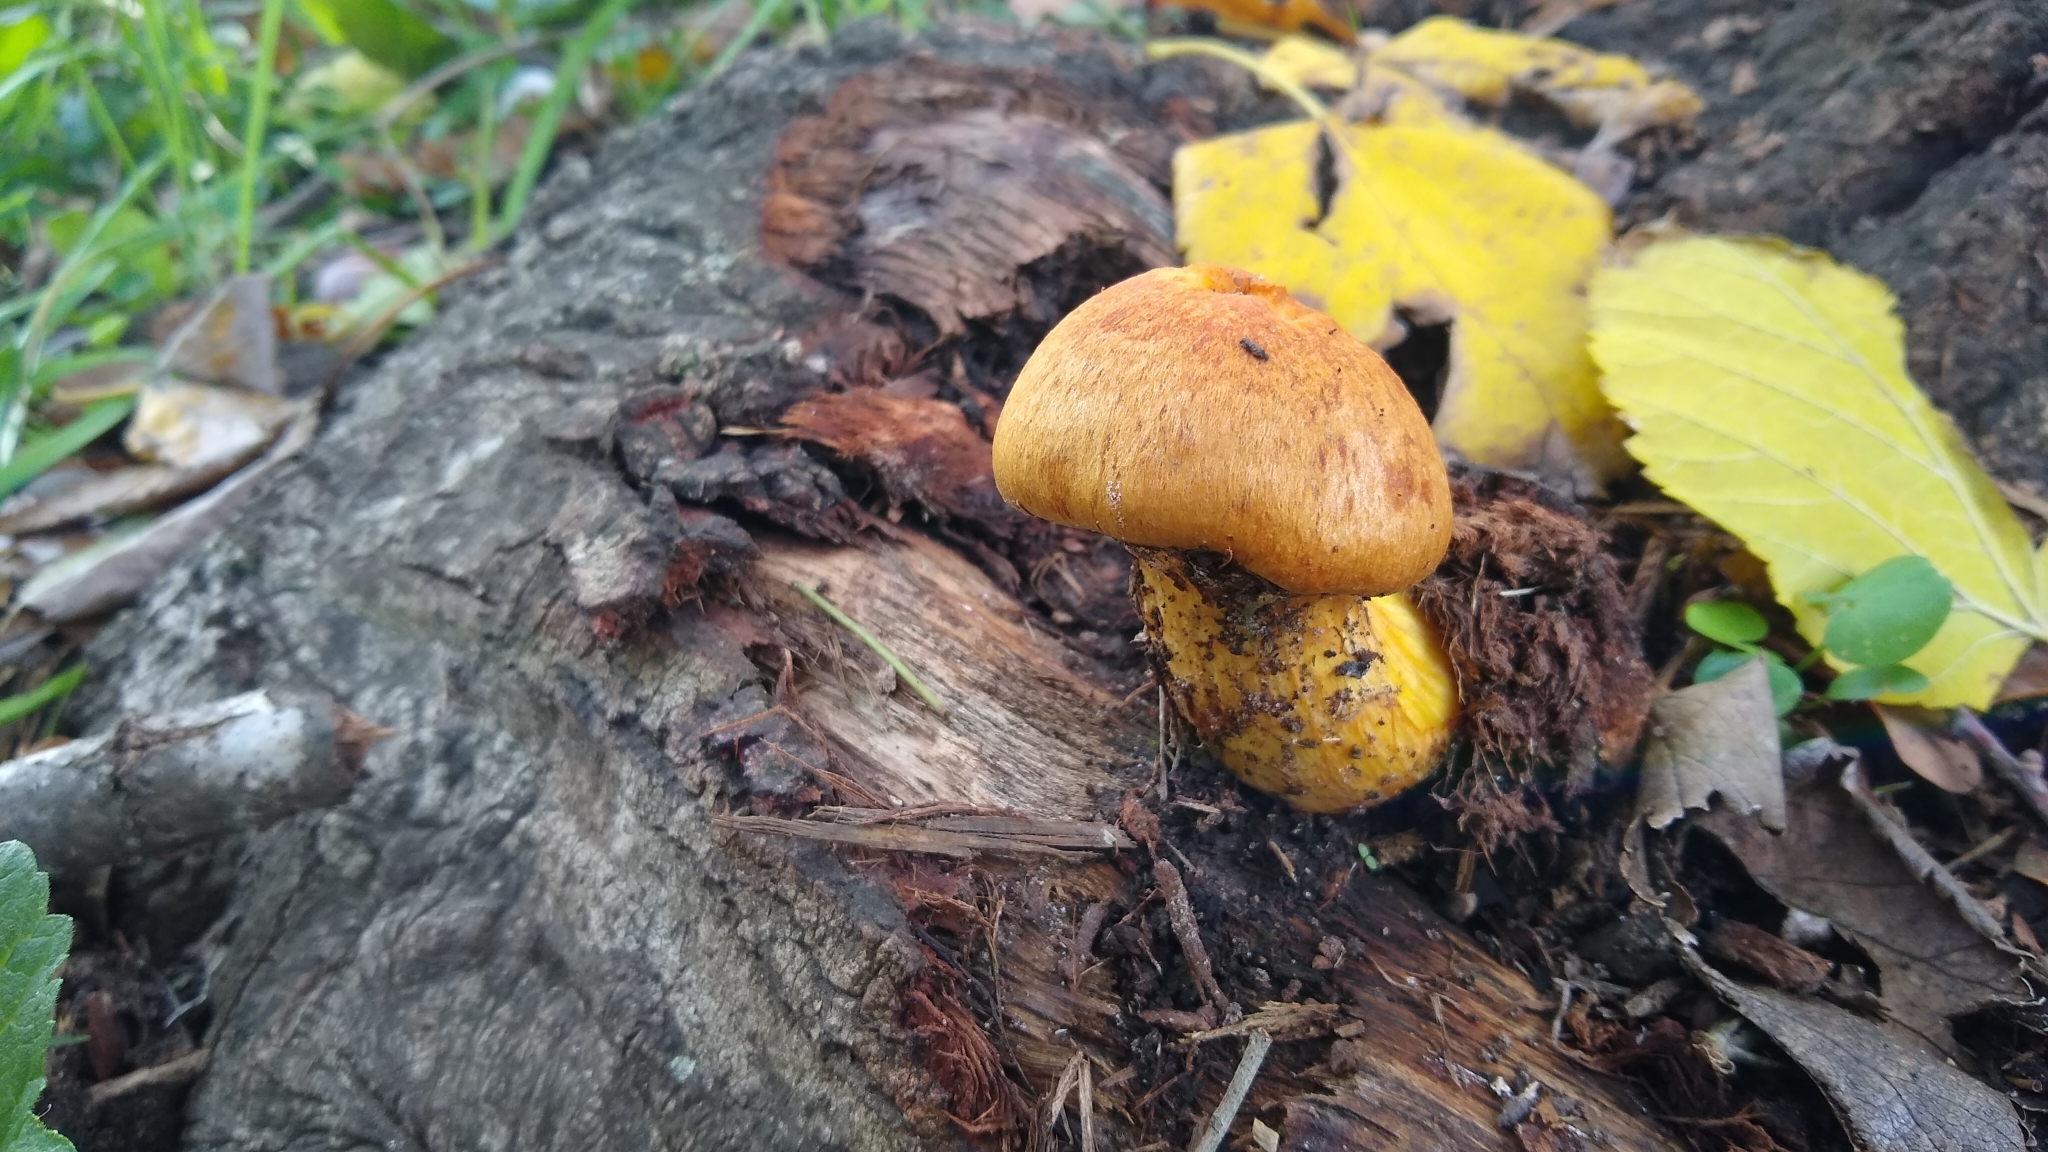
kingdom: Fungi
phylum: Basidiomycota
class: Agaricomycetes
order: Agaricales
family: Hymenogastraceae
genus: Gymnopilus
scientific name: Gymnopilus junonius
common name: Spectacular rustgill
